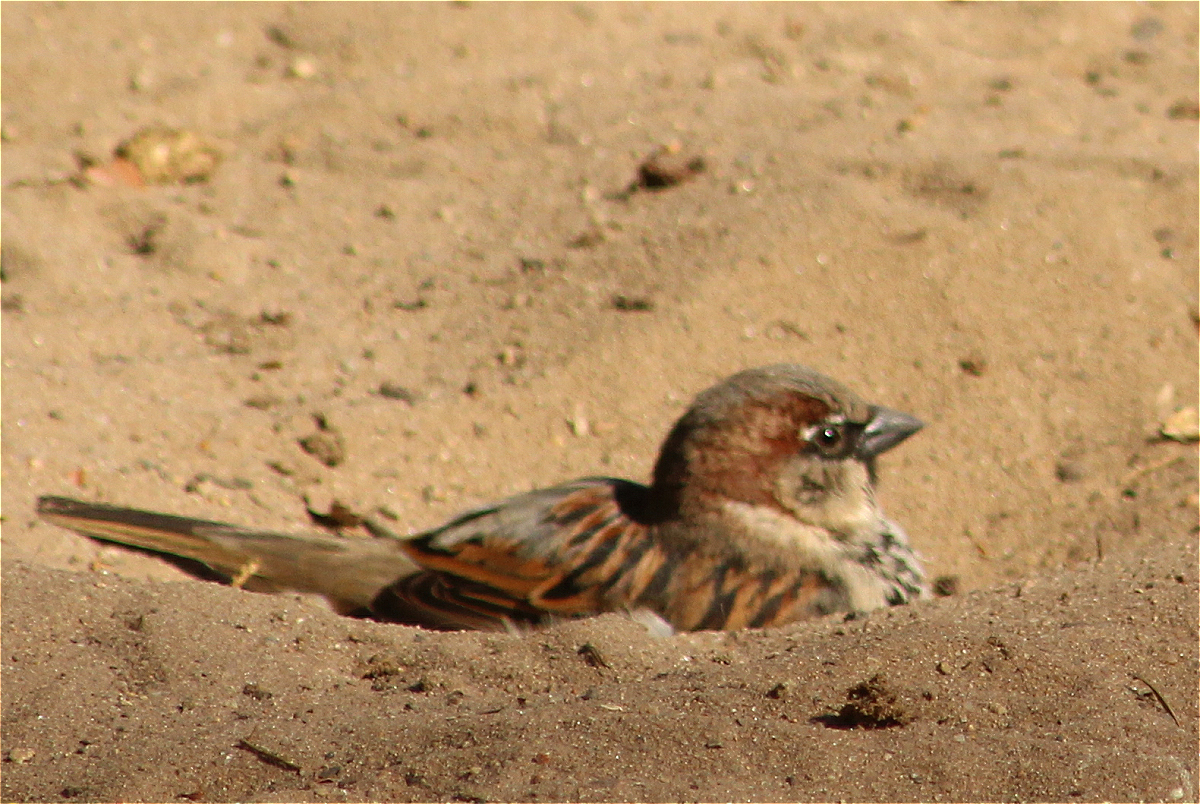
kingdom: Animalia
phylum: Chordata
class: Aves
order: Passeriformes
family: Passeridae
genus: Passer
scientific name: Passer domesticus
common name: House sparrow
